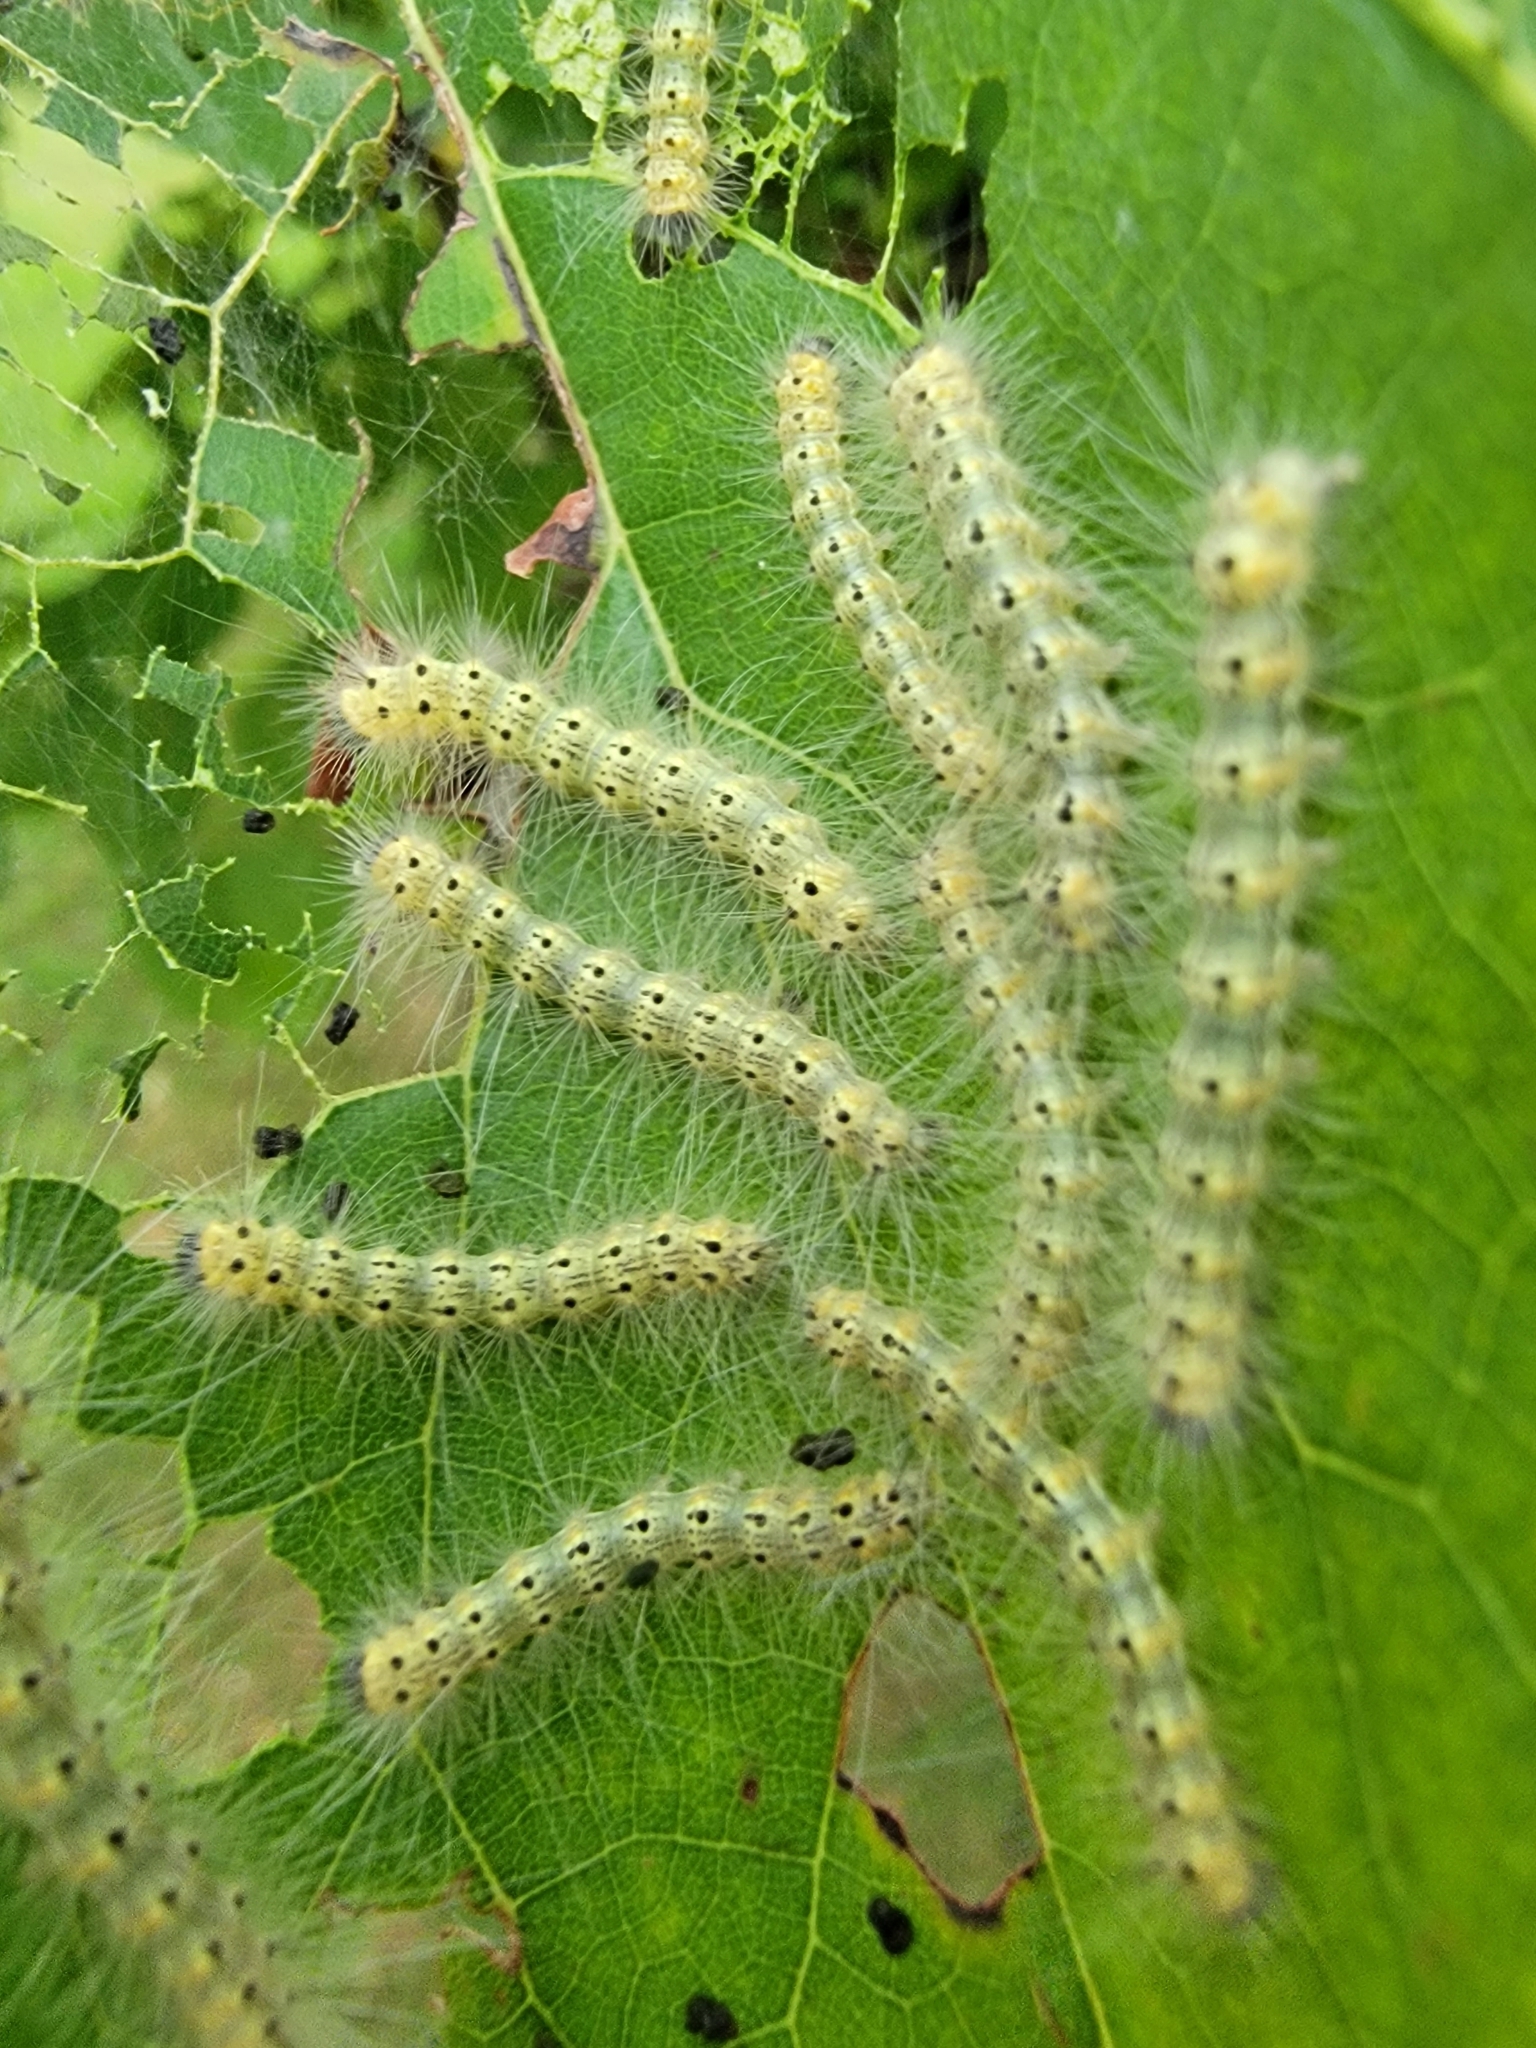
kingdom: Animalia
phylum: Arthropoda
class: Insecta
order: Lepidoptera
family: Erebidae
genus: Hyphantria
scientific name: Hyphantria cunea
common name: American white moth
